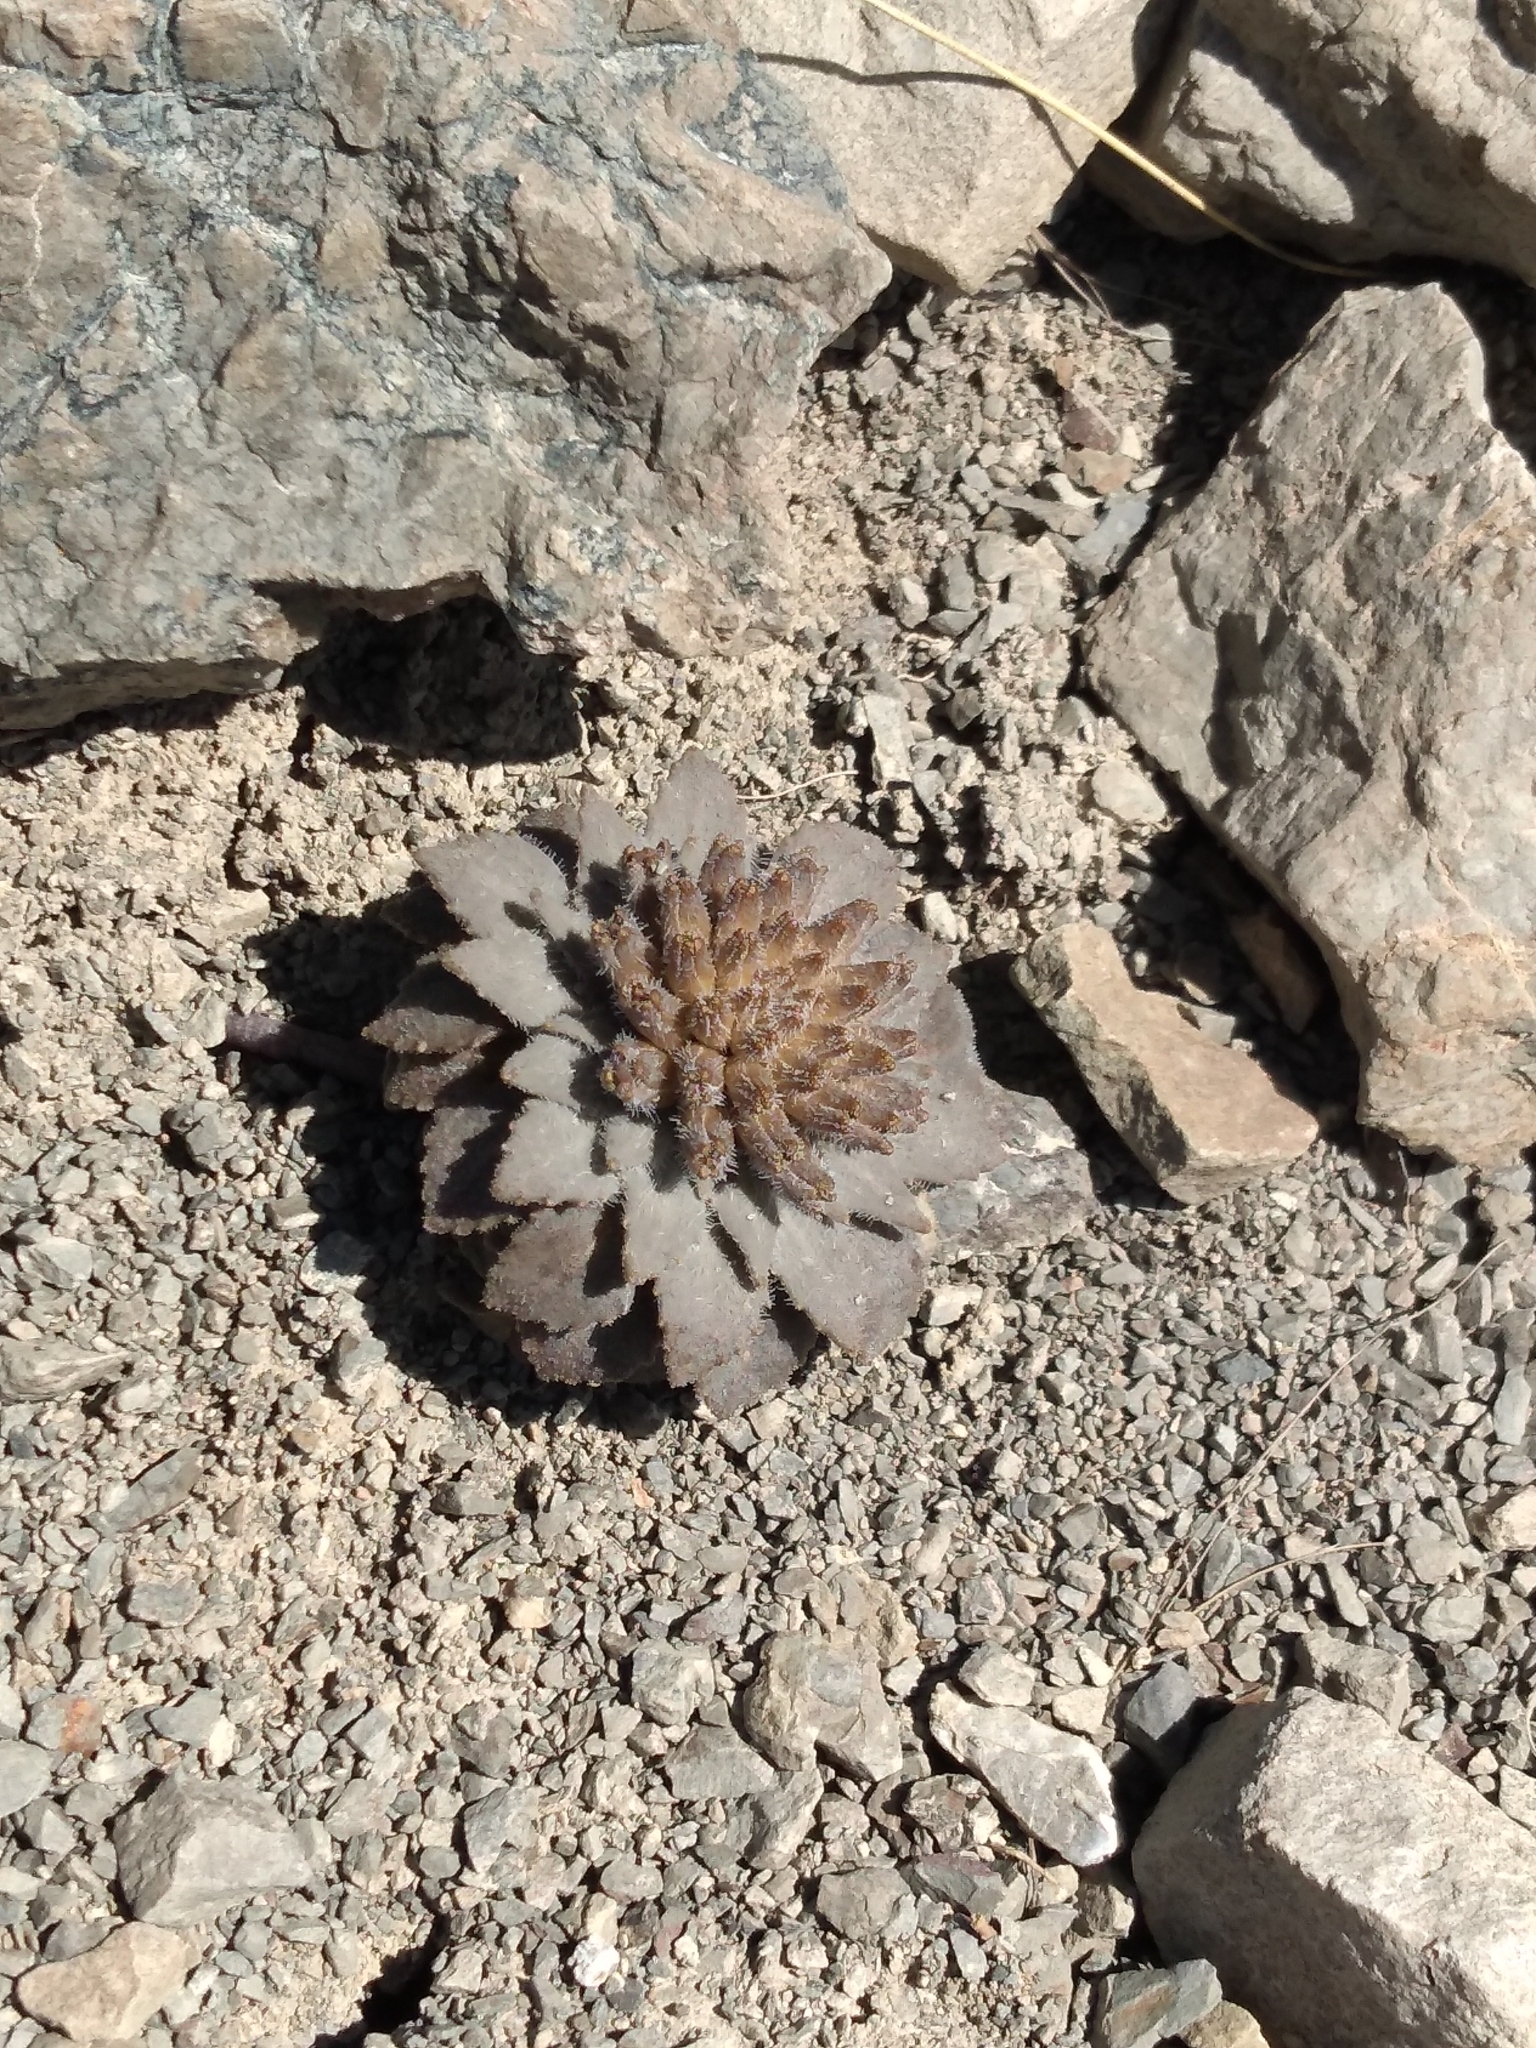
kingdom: Plantae
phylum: Tracheophyta
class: Magnoliopsida
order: Brassicales
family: Brassicaceae
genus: Notothlaspi
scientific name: Notothlaspi rosulatum
